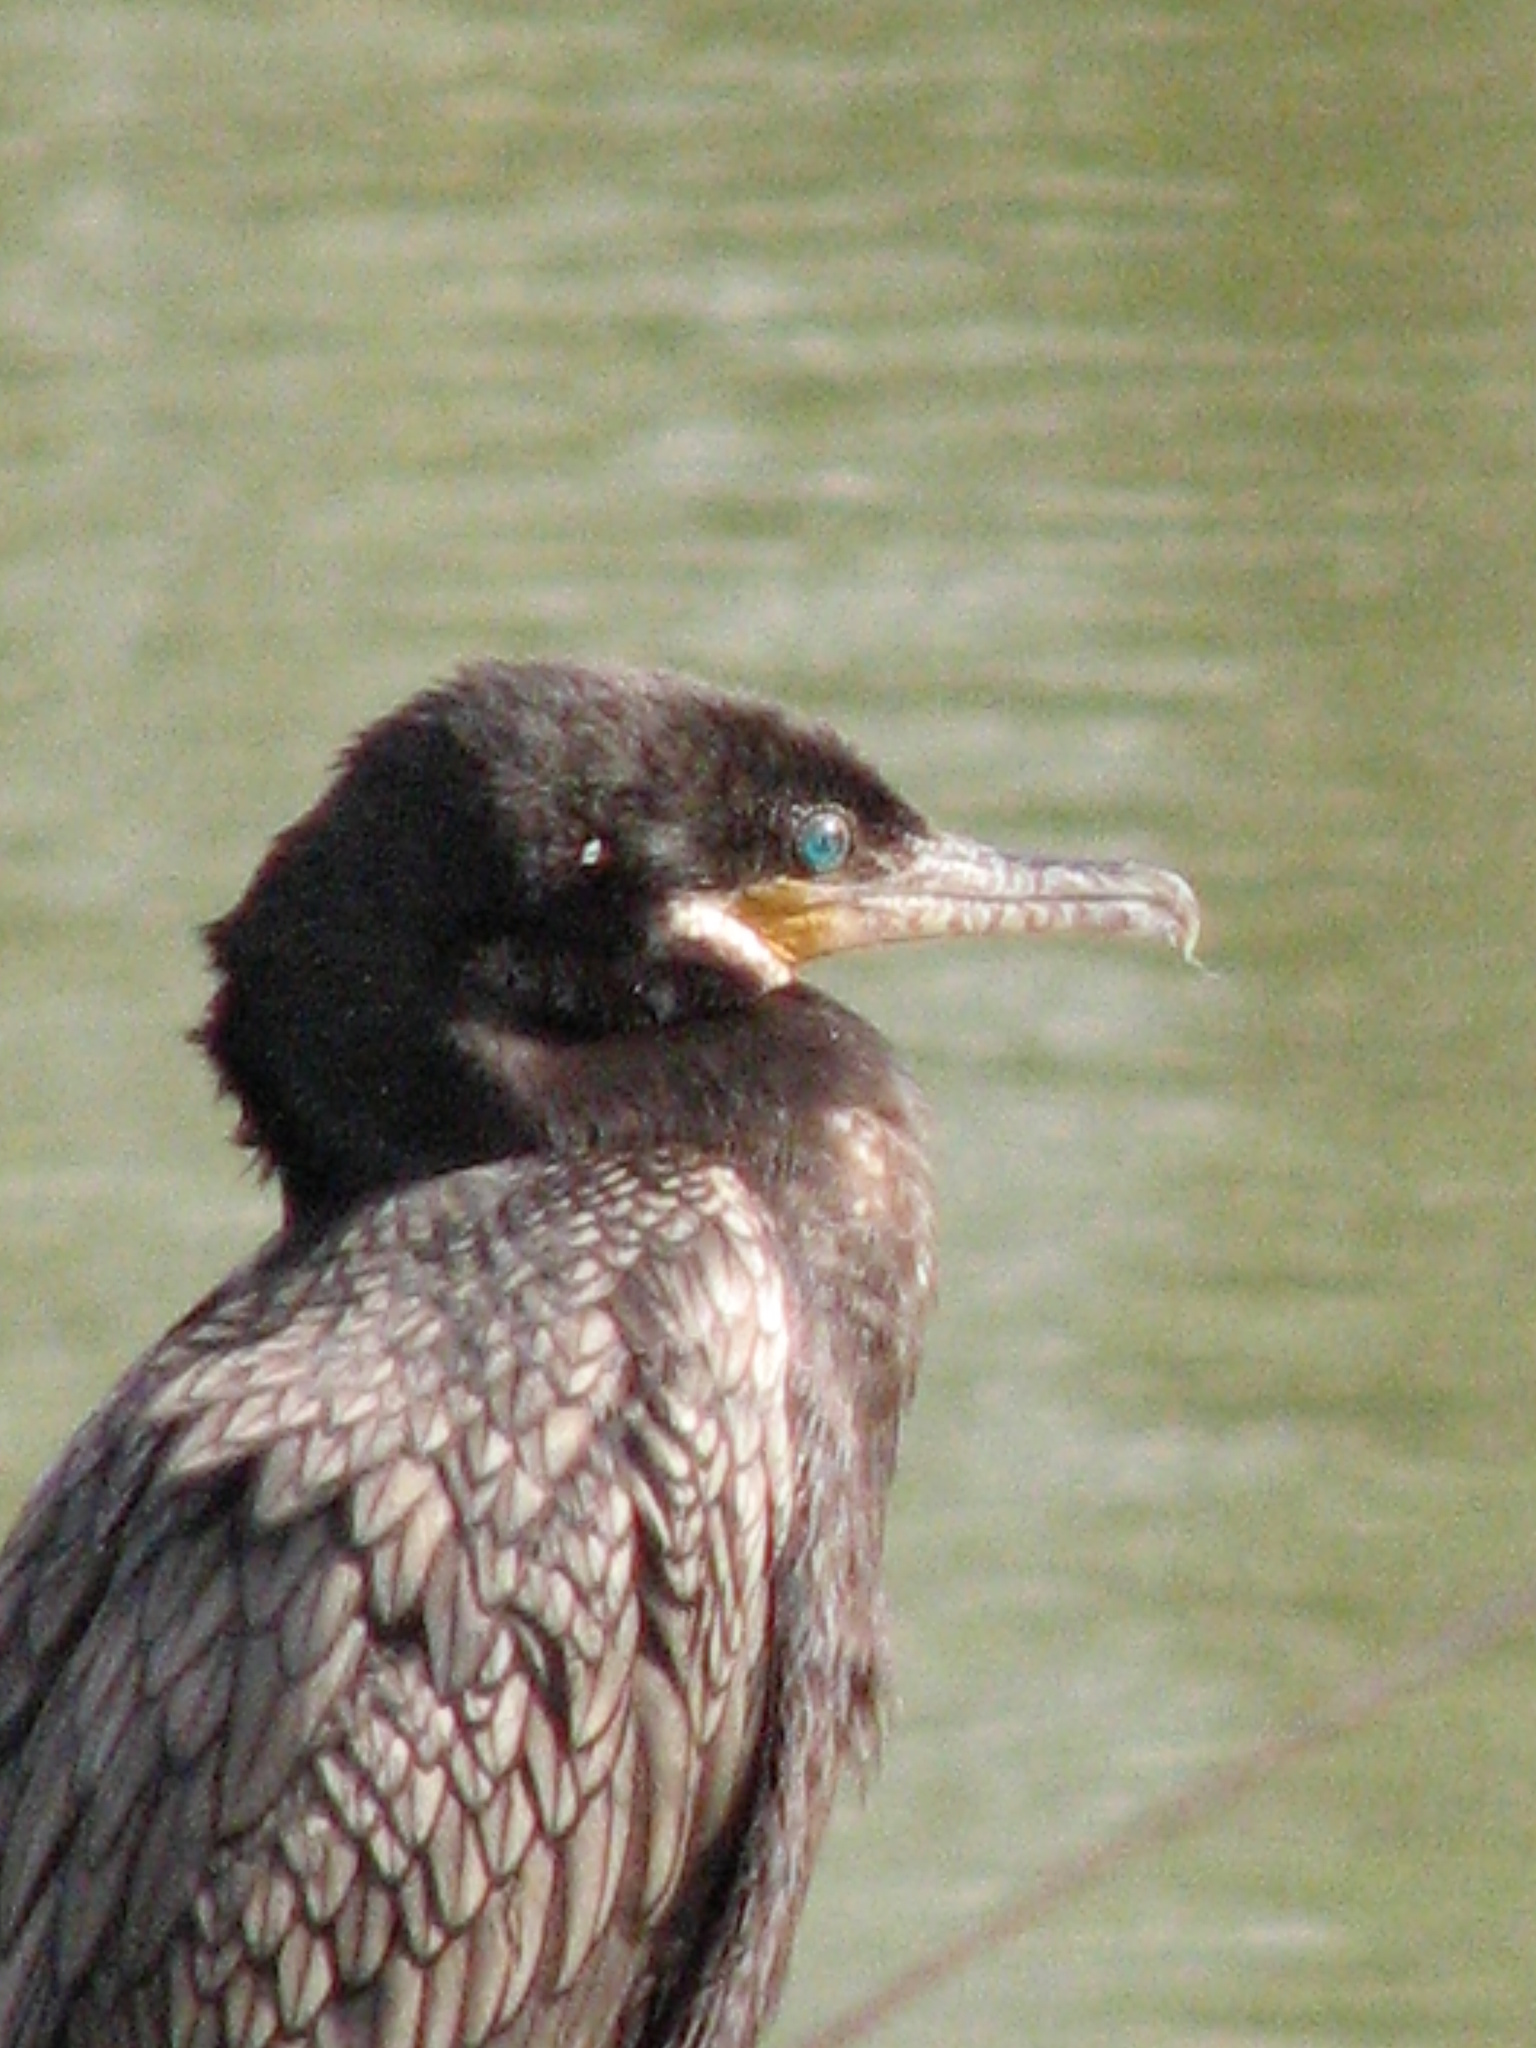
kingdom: Animalia
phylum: Chordata
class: Aves
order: Suliformes
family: Phalacrocoracidae
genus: Phalacrocorax
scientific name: Phalacrocorax brasilianus
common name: Neotropic cormorant
